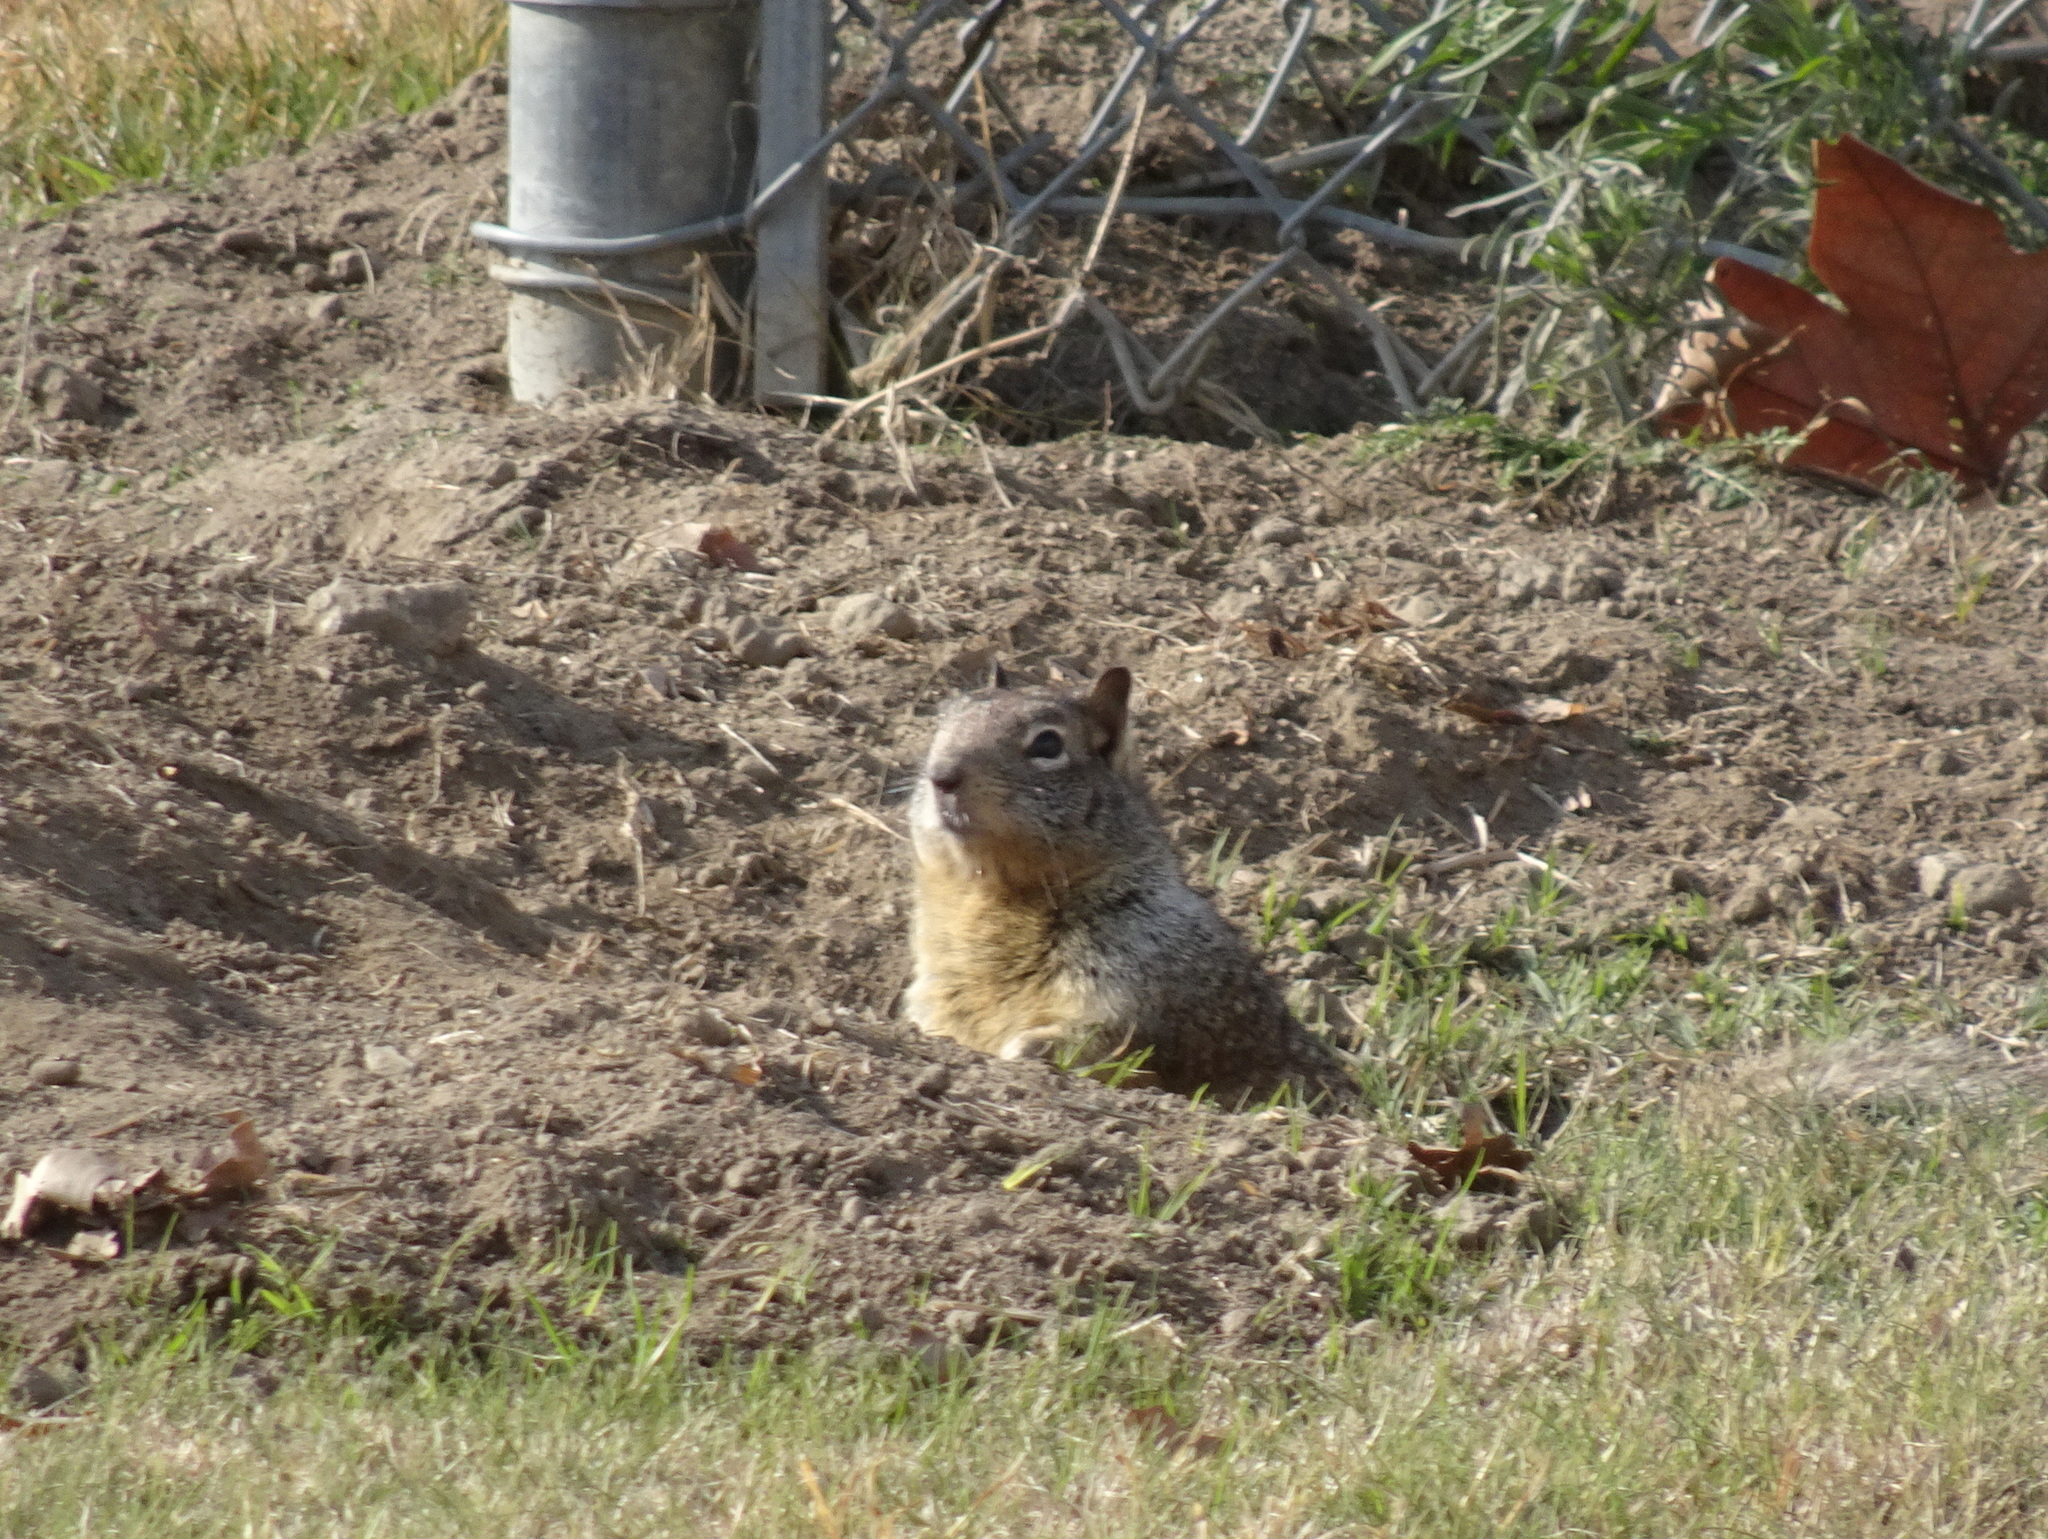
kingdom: Animalia
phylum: Chordata
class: Mammalia
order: Rodentia
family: Sciuridae
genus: Otospermophilus
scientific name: Otospermophilus beecheyi
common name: California ground squirrel
